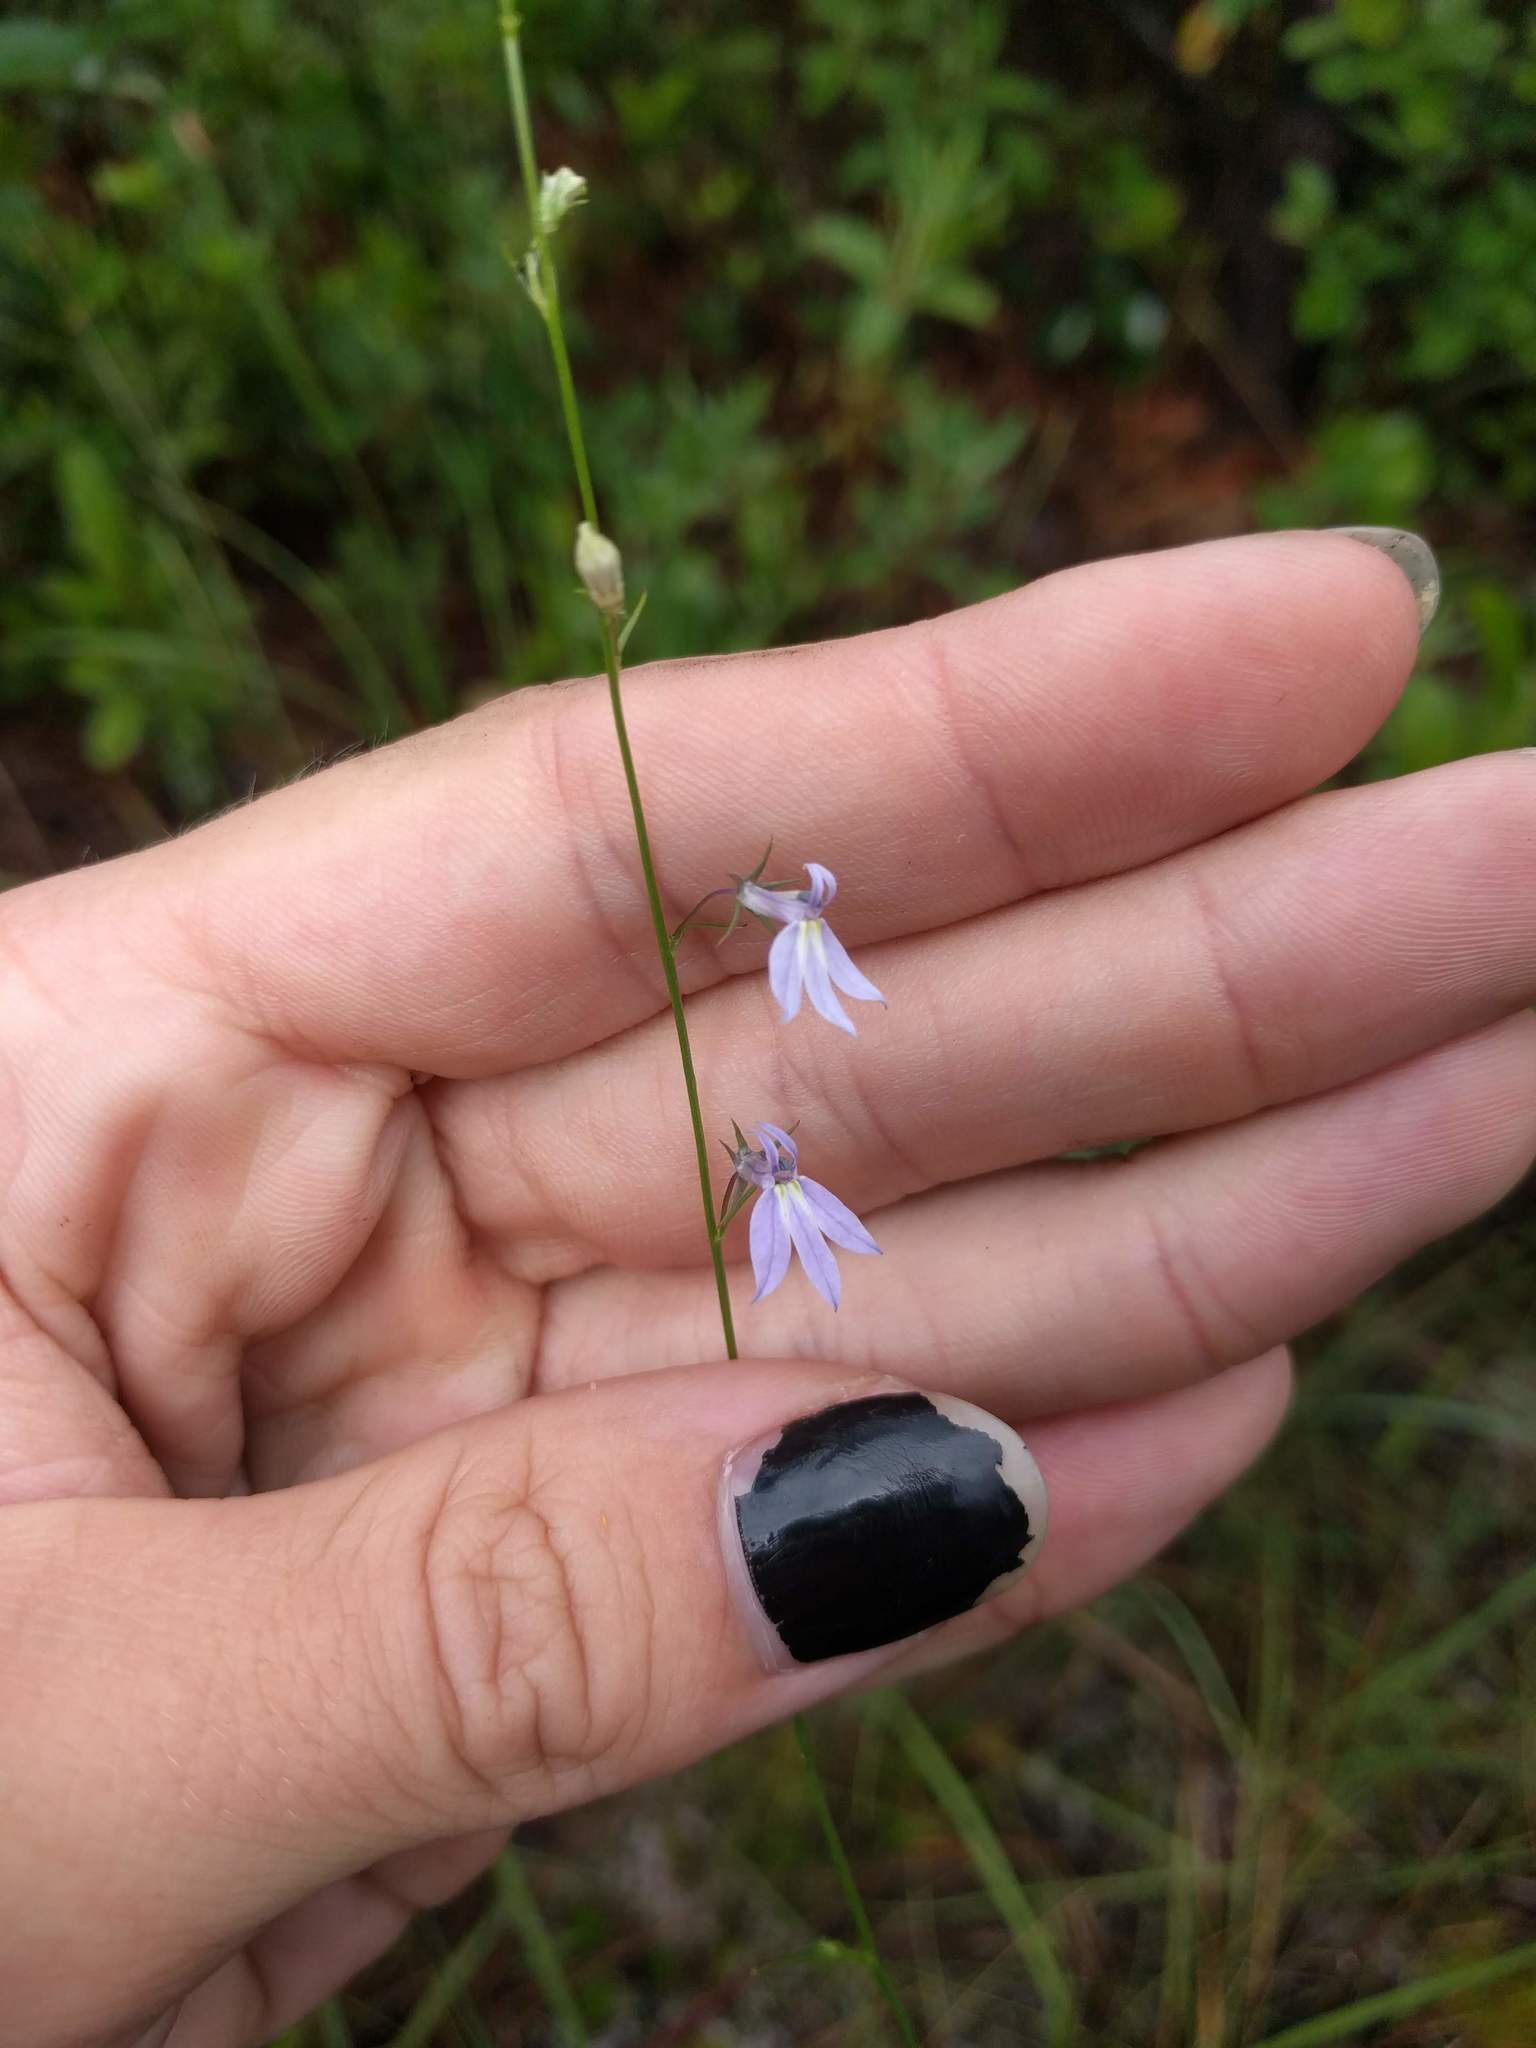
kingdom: Plantae
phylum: Tracheophyta
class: Magnoliopsida
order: Asterales
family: Campanulaceae
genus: Lobelia
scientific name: Lobelia nuttallii
